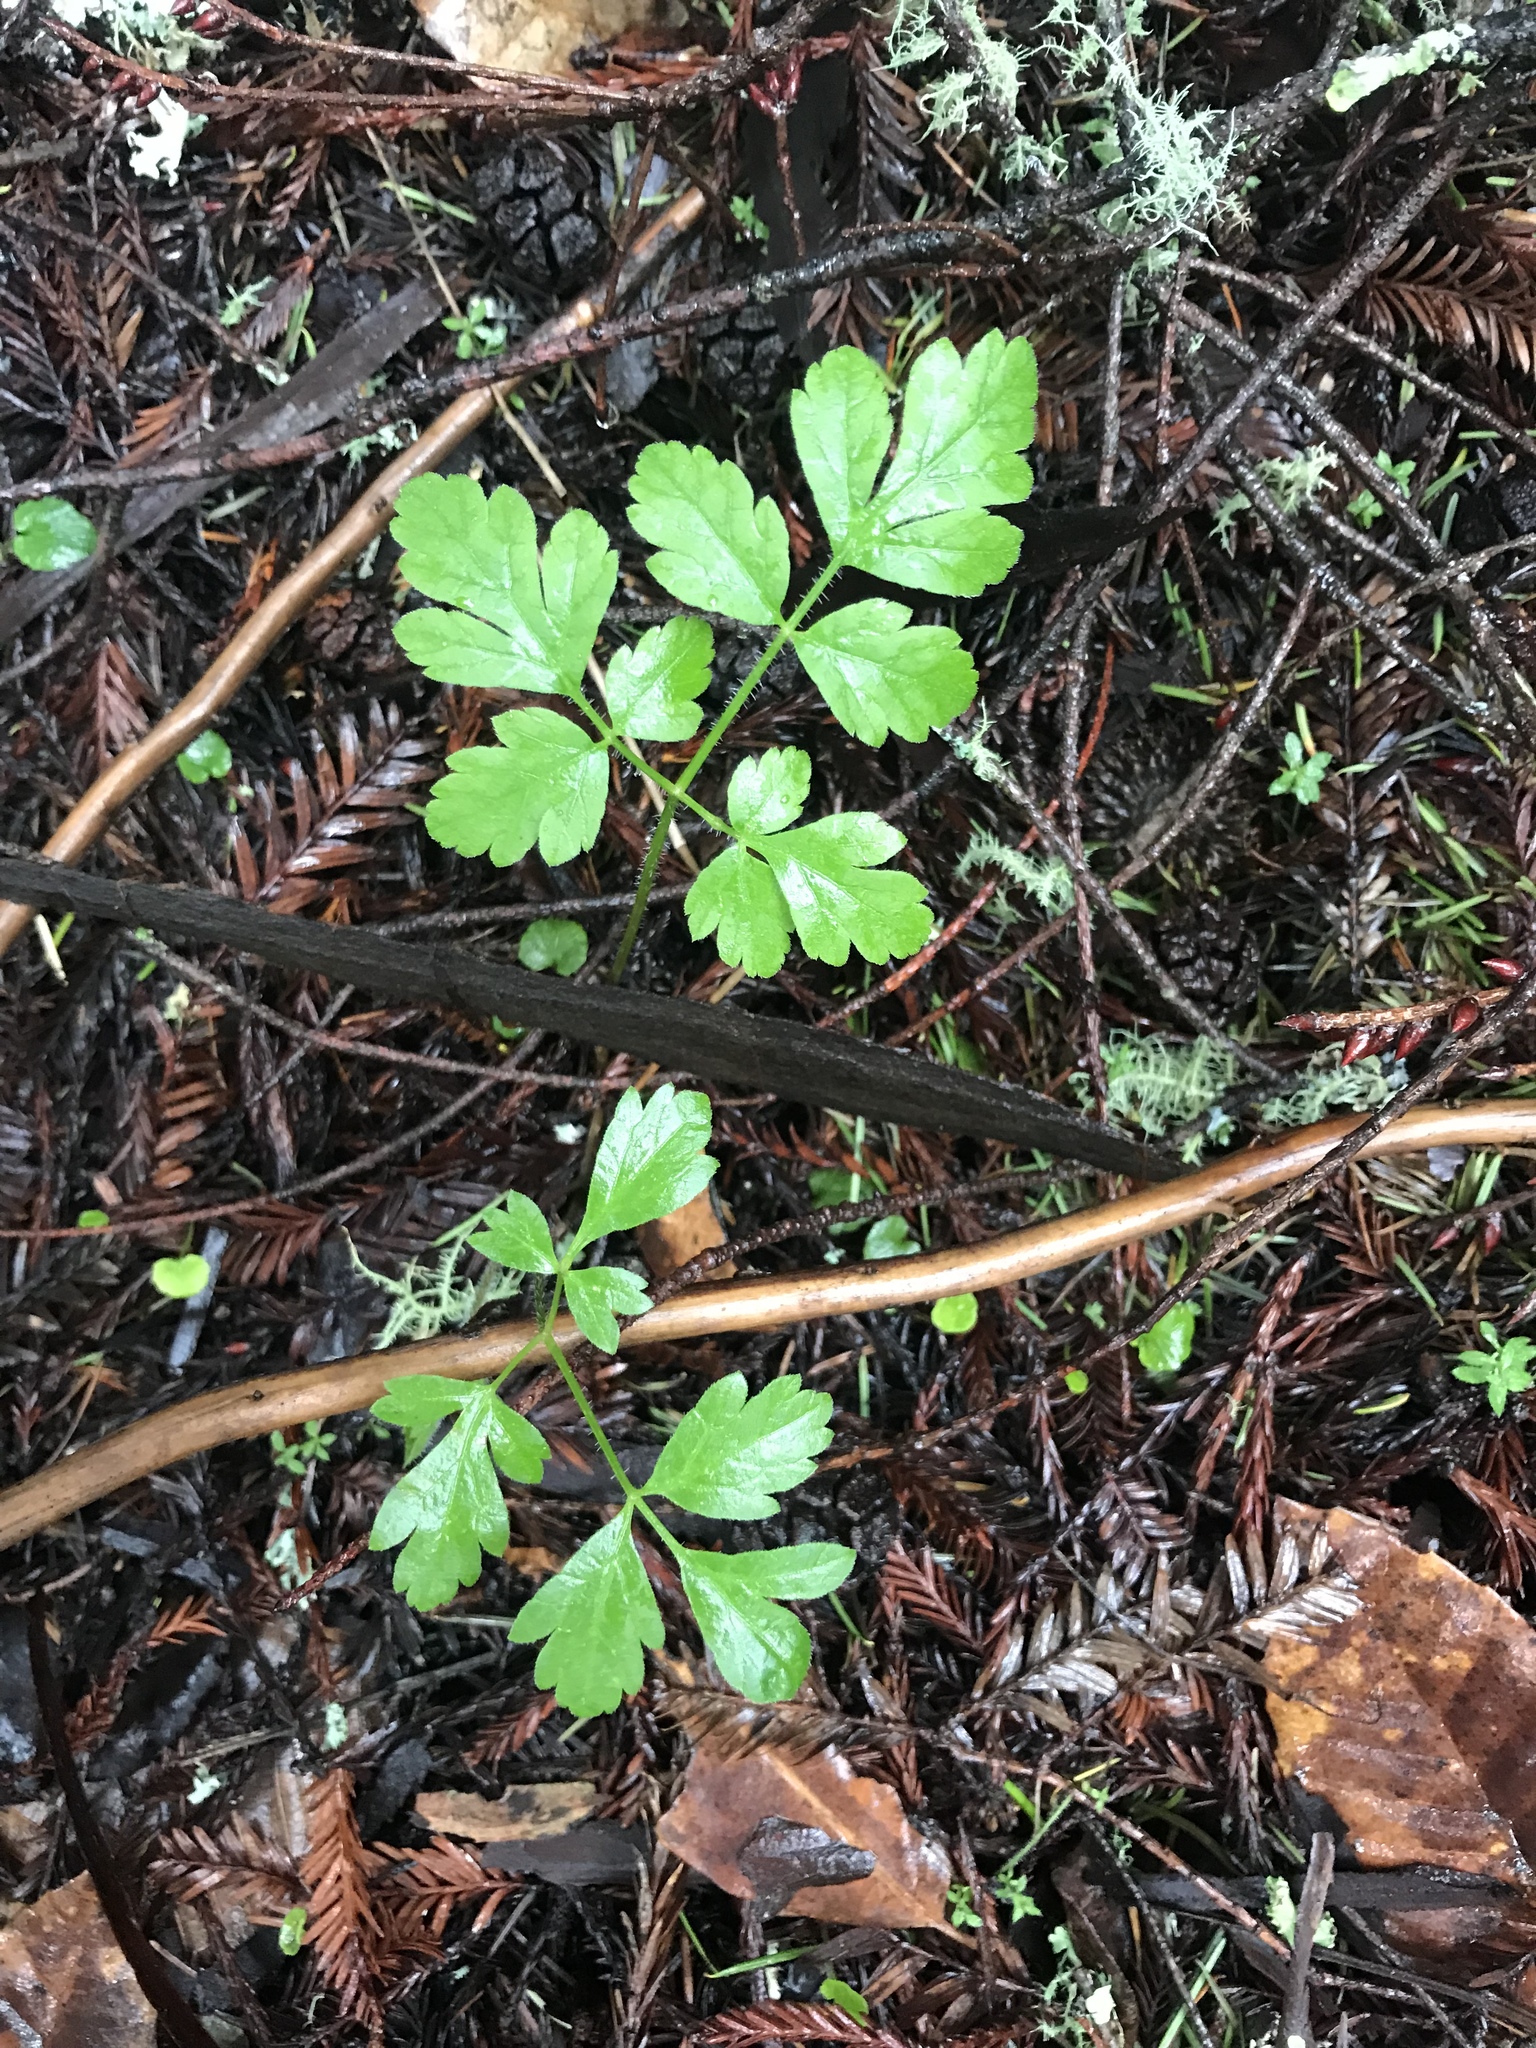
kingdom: Plantae
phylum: Tracheophyta
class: Magnoliopsida
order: Apiales
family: Apiaceae
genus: Osmorhiza
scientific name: Osmorhiza berteroi
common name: Mountain sweet cicely
